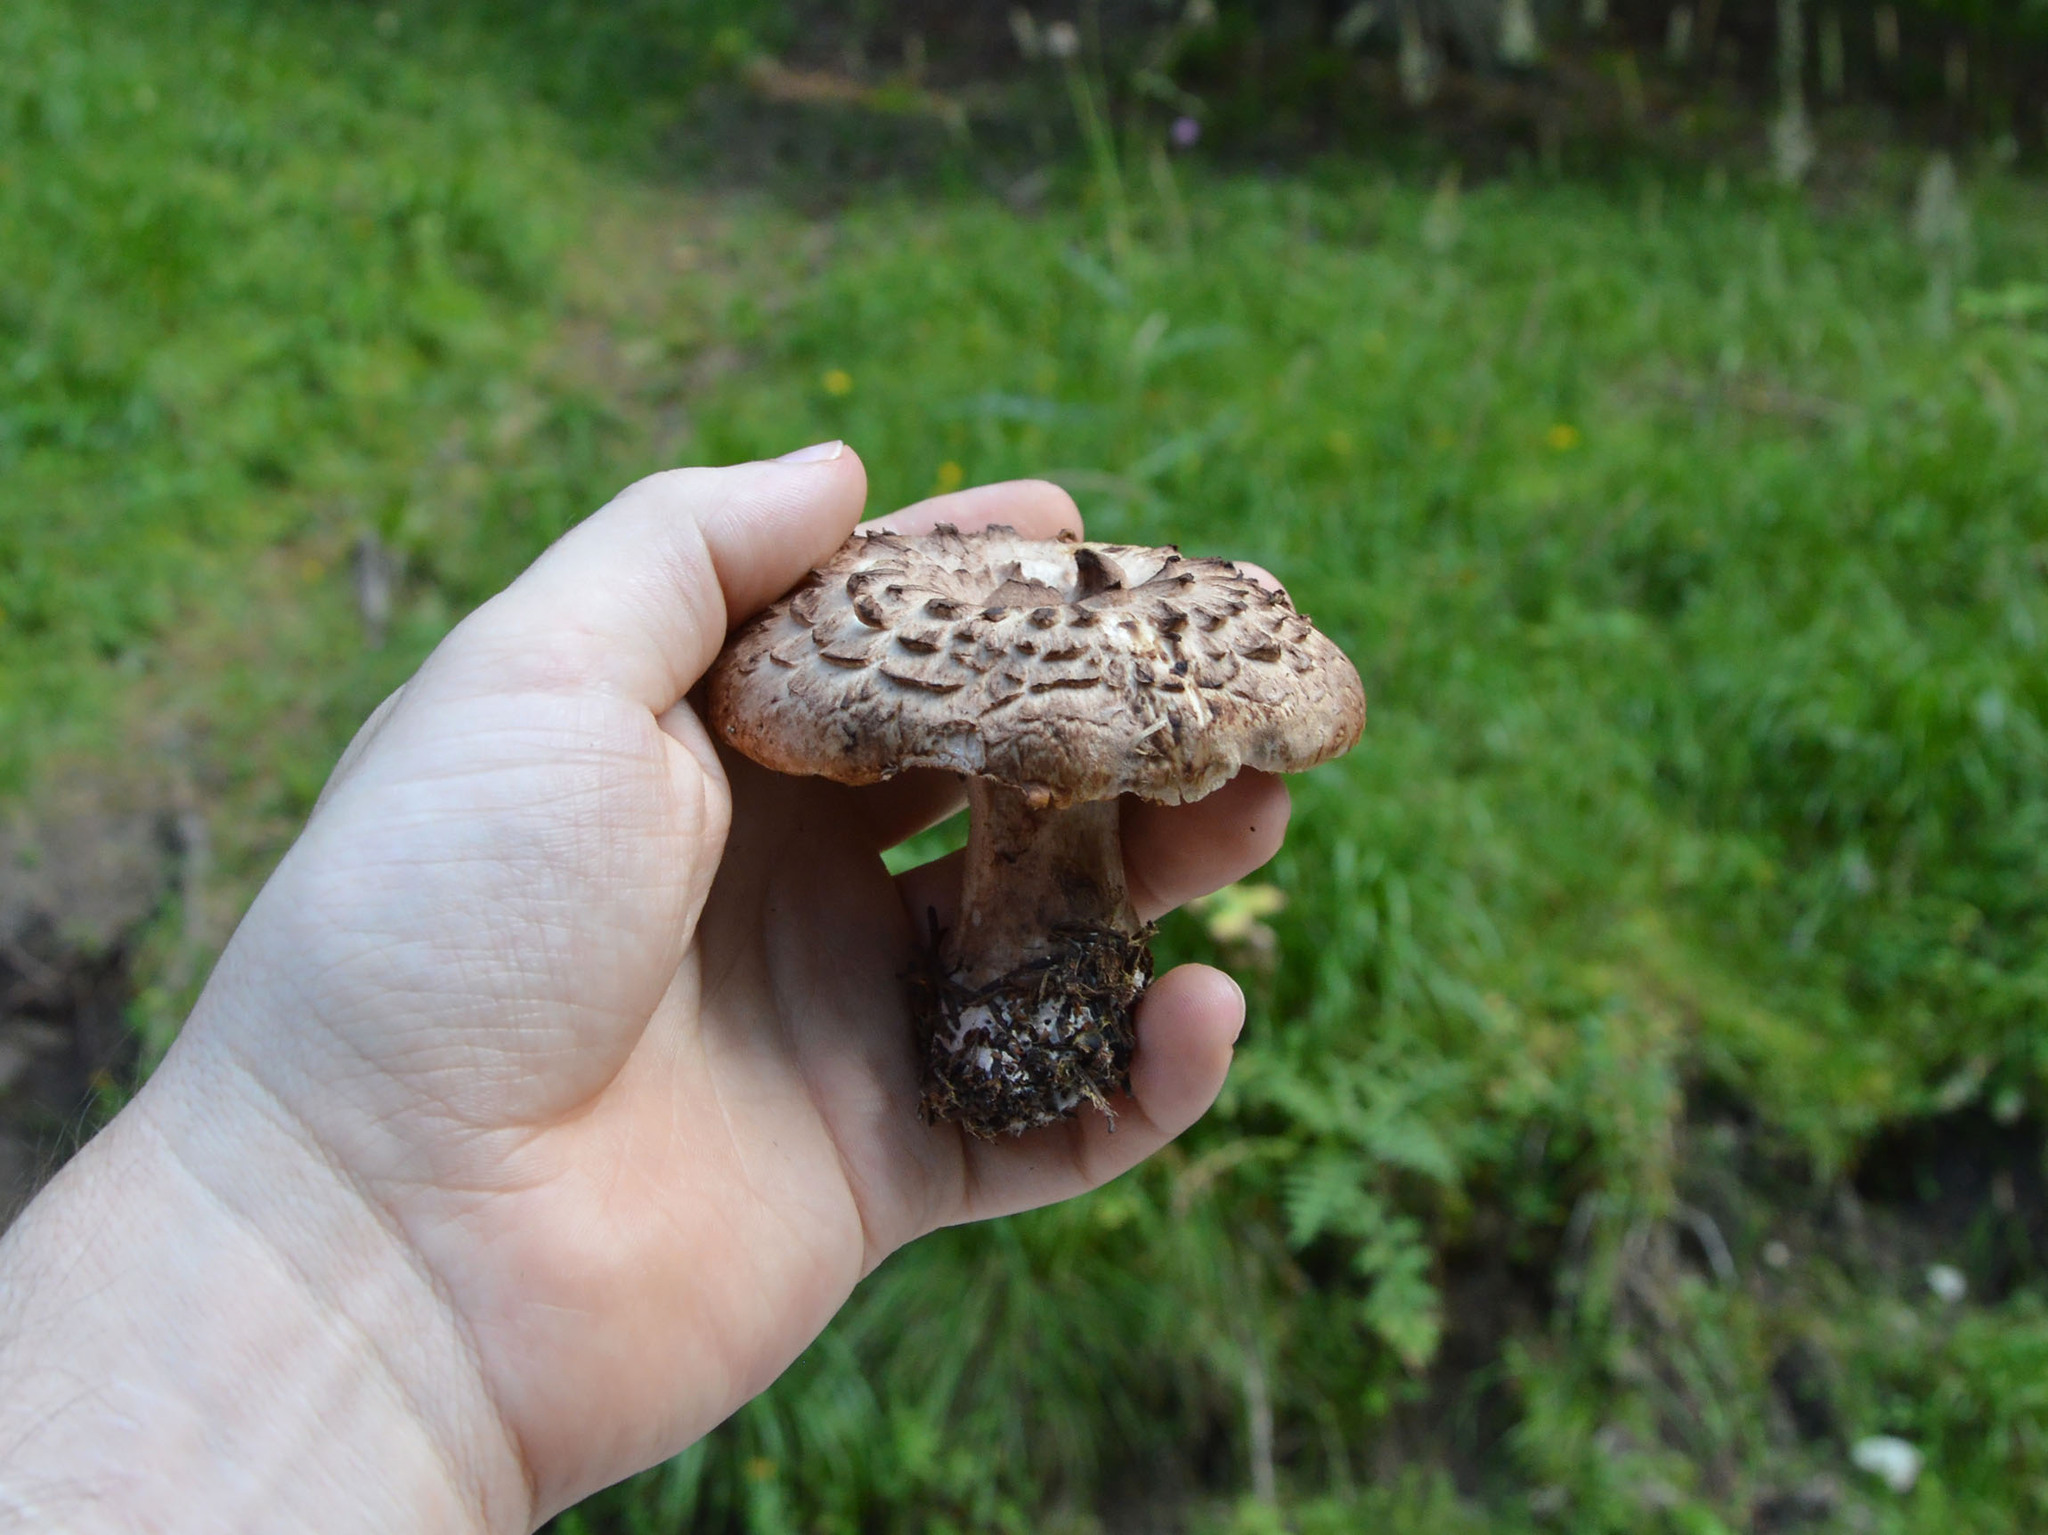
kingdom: Fungi
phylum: Basidiomycota
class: Agaricomycetes
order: Thelephorales
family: Bankeraceae
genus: Sarcodon
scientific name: Sarcodon imbricatus
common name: Shingled hedgehog
